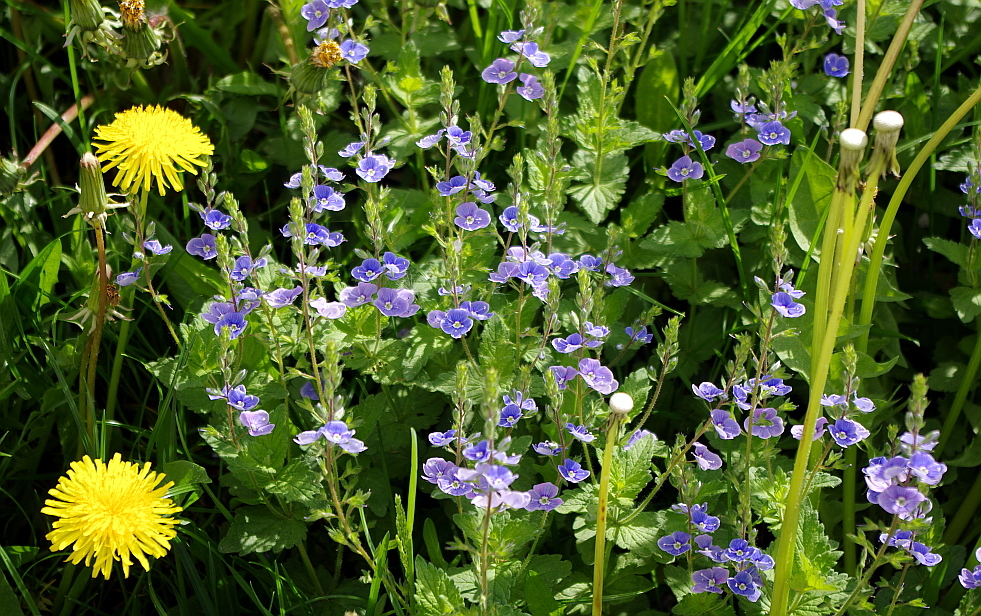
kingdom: Plantae
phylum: Tracheophyta
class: Magnoliopsida
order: Lamiales
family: Plantaginaceae
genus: Veronica
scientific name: Veronica chamaedrys
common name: Germander speedwell
